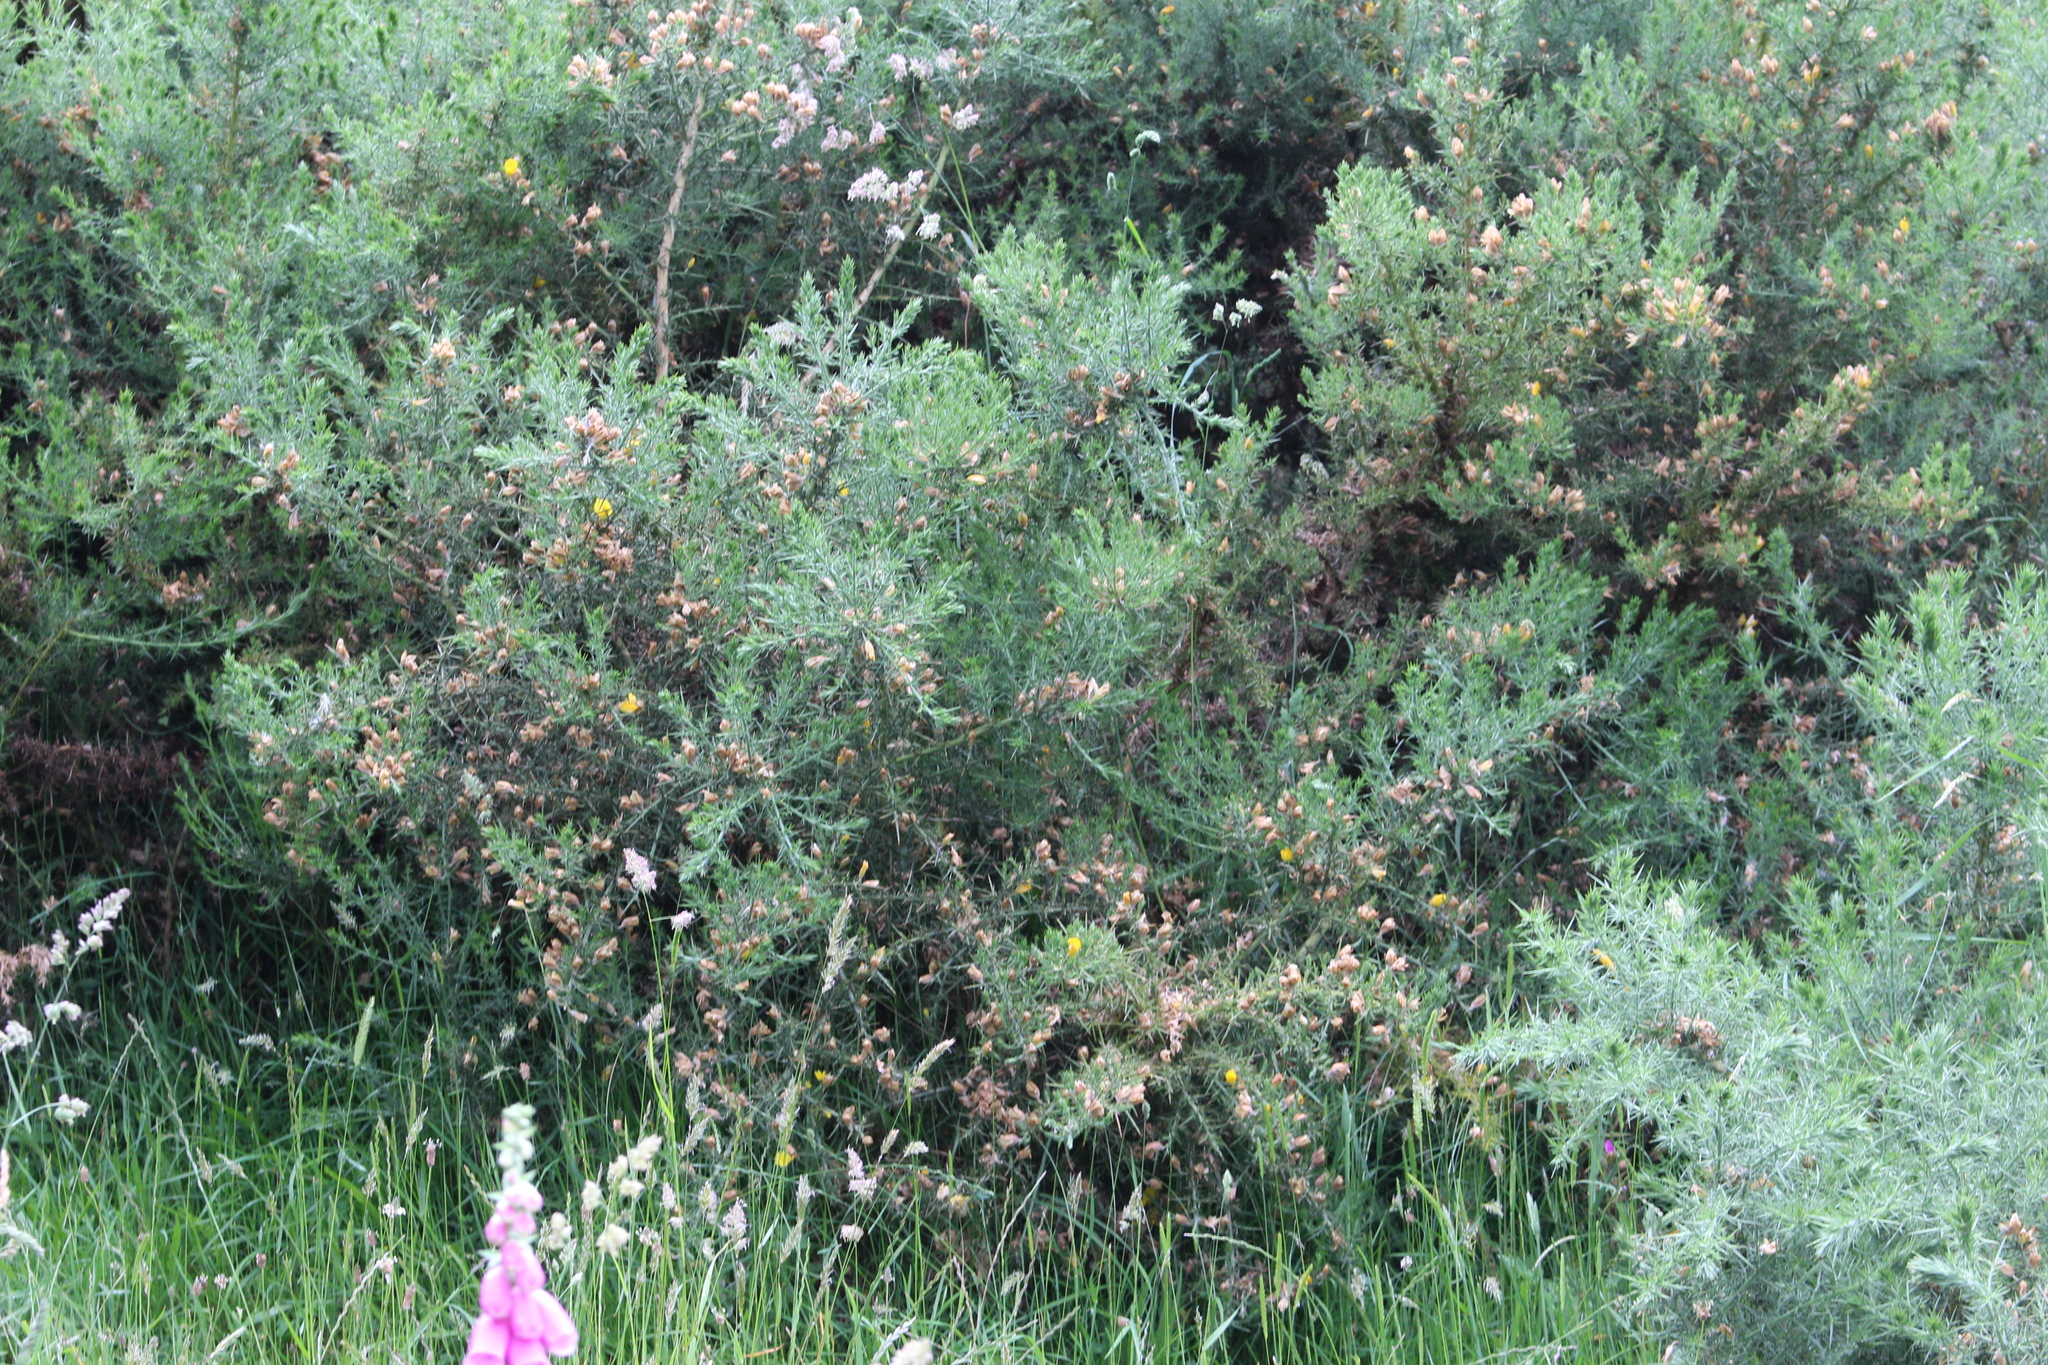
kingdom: Plantae
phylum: Tracheophyta
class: Magnoliopsida
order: Fabales
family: Fabaceae
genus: Ulex
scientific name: Ulex europaeus
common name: Common gorse
